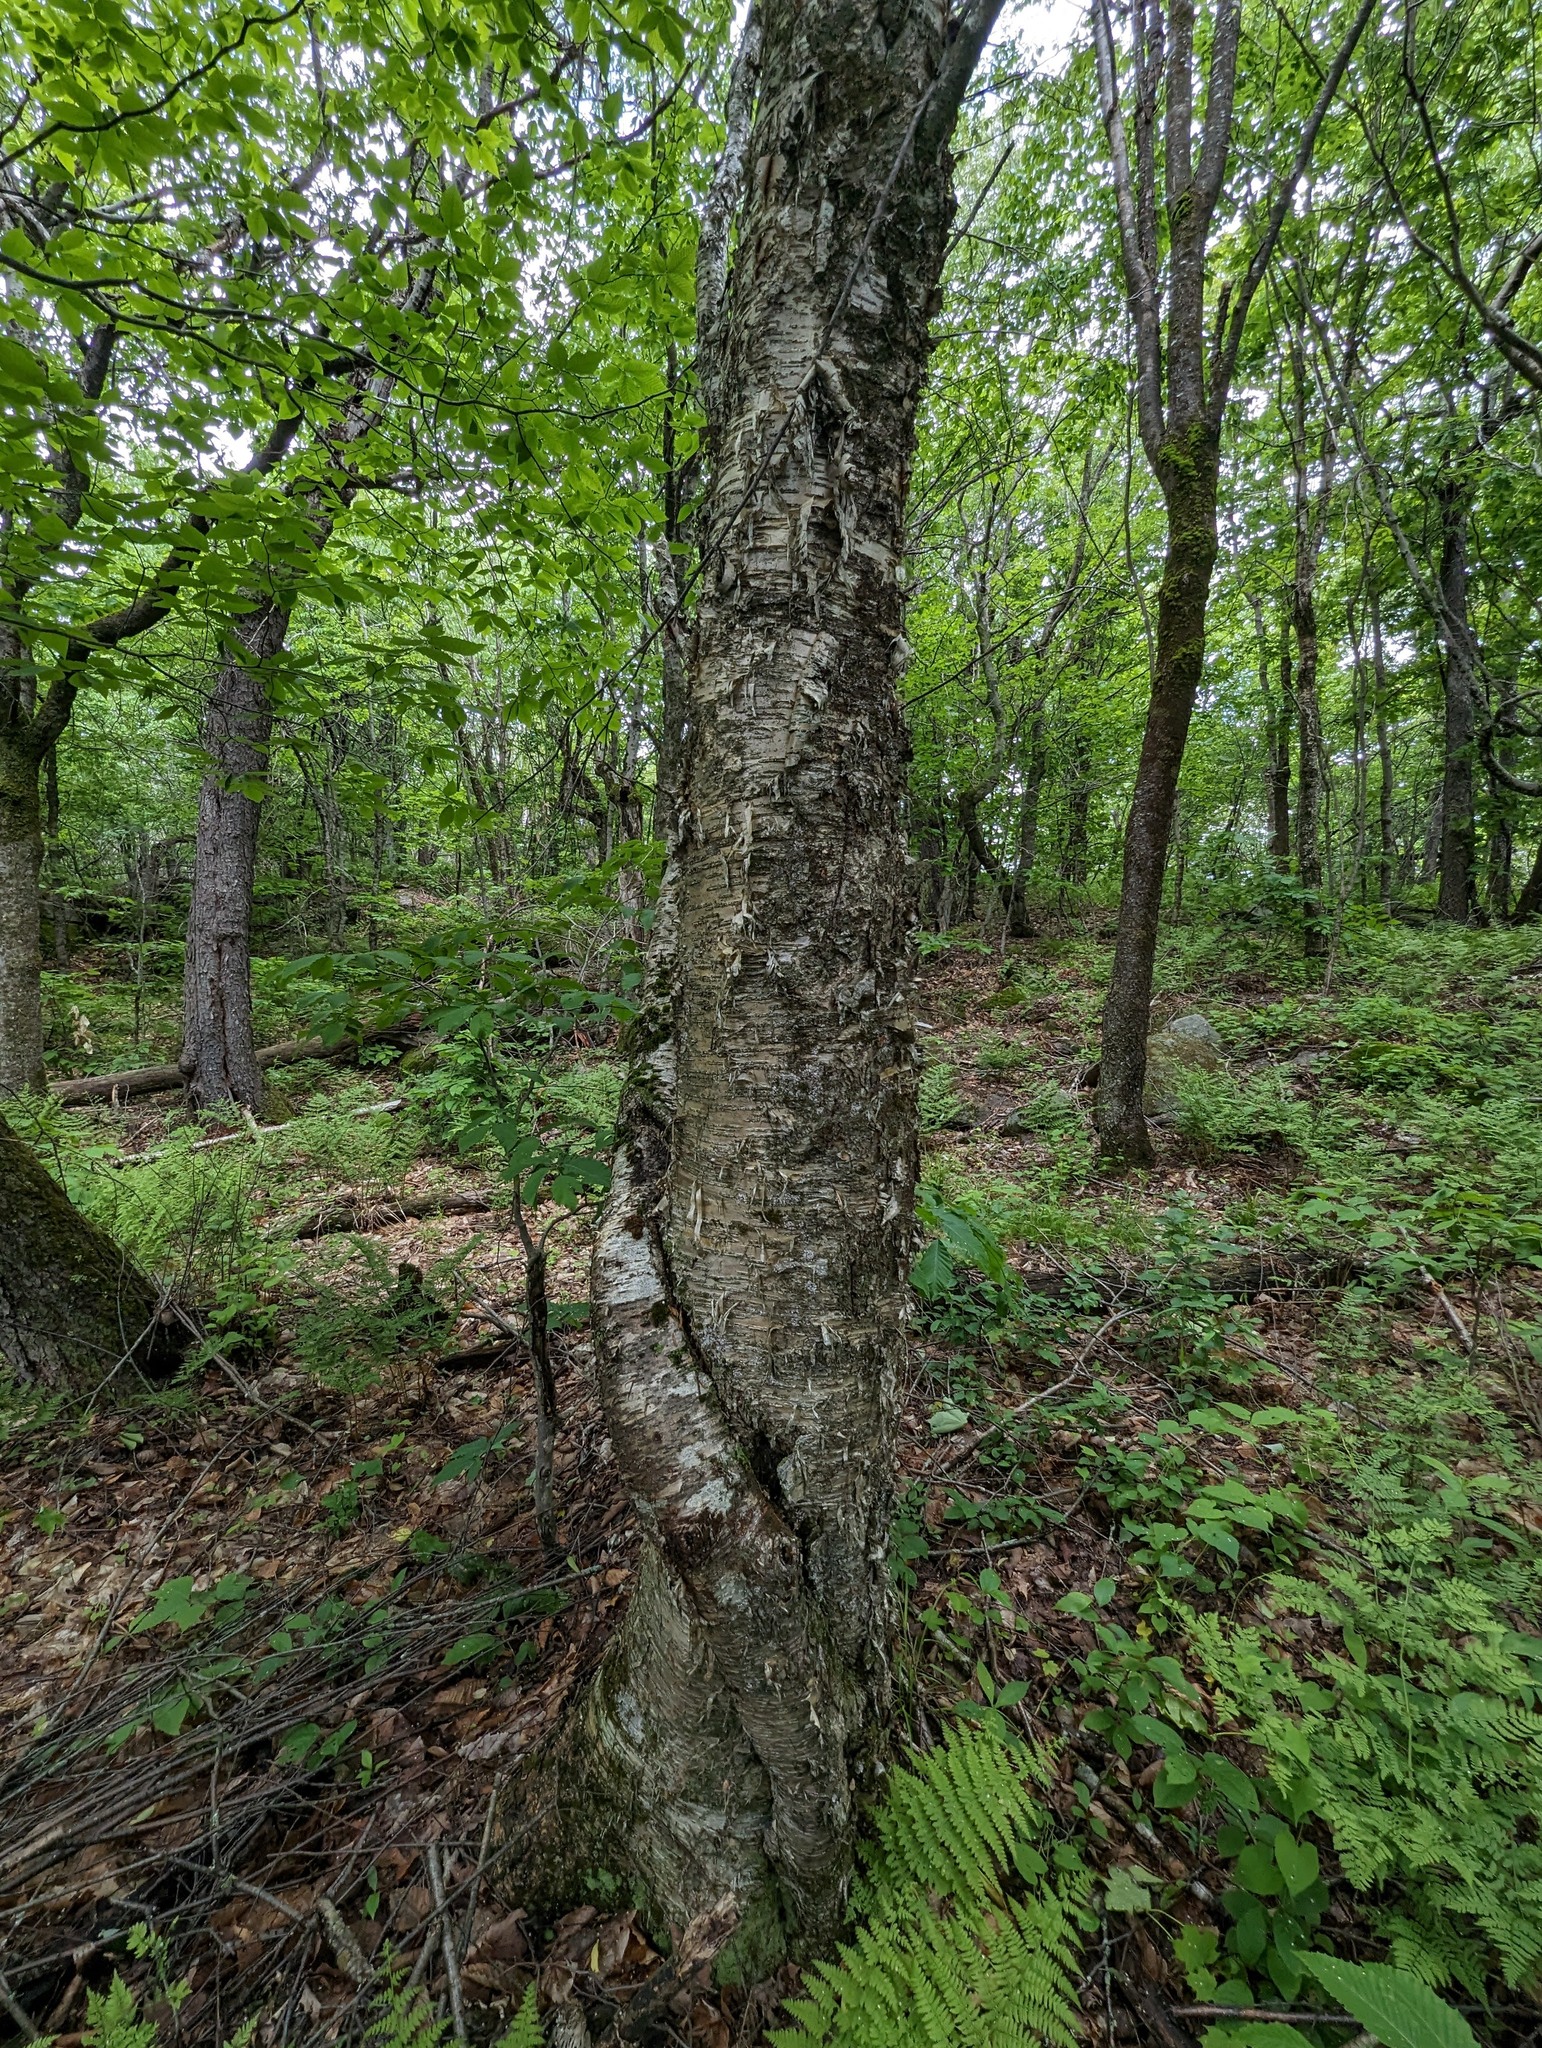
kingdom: Plantae
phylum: Tracheophyta
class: Magnoliopsida
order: Fagales
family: Betulaceae
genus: Betula
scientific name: Betula alleghaniensis
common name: Yellow birch
